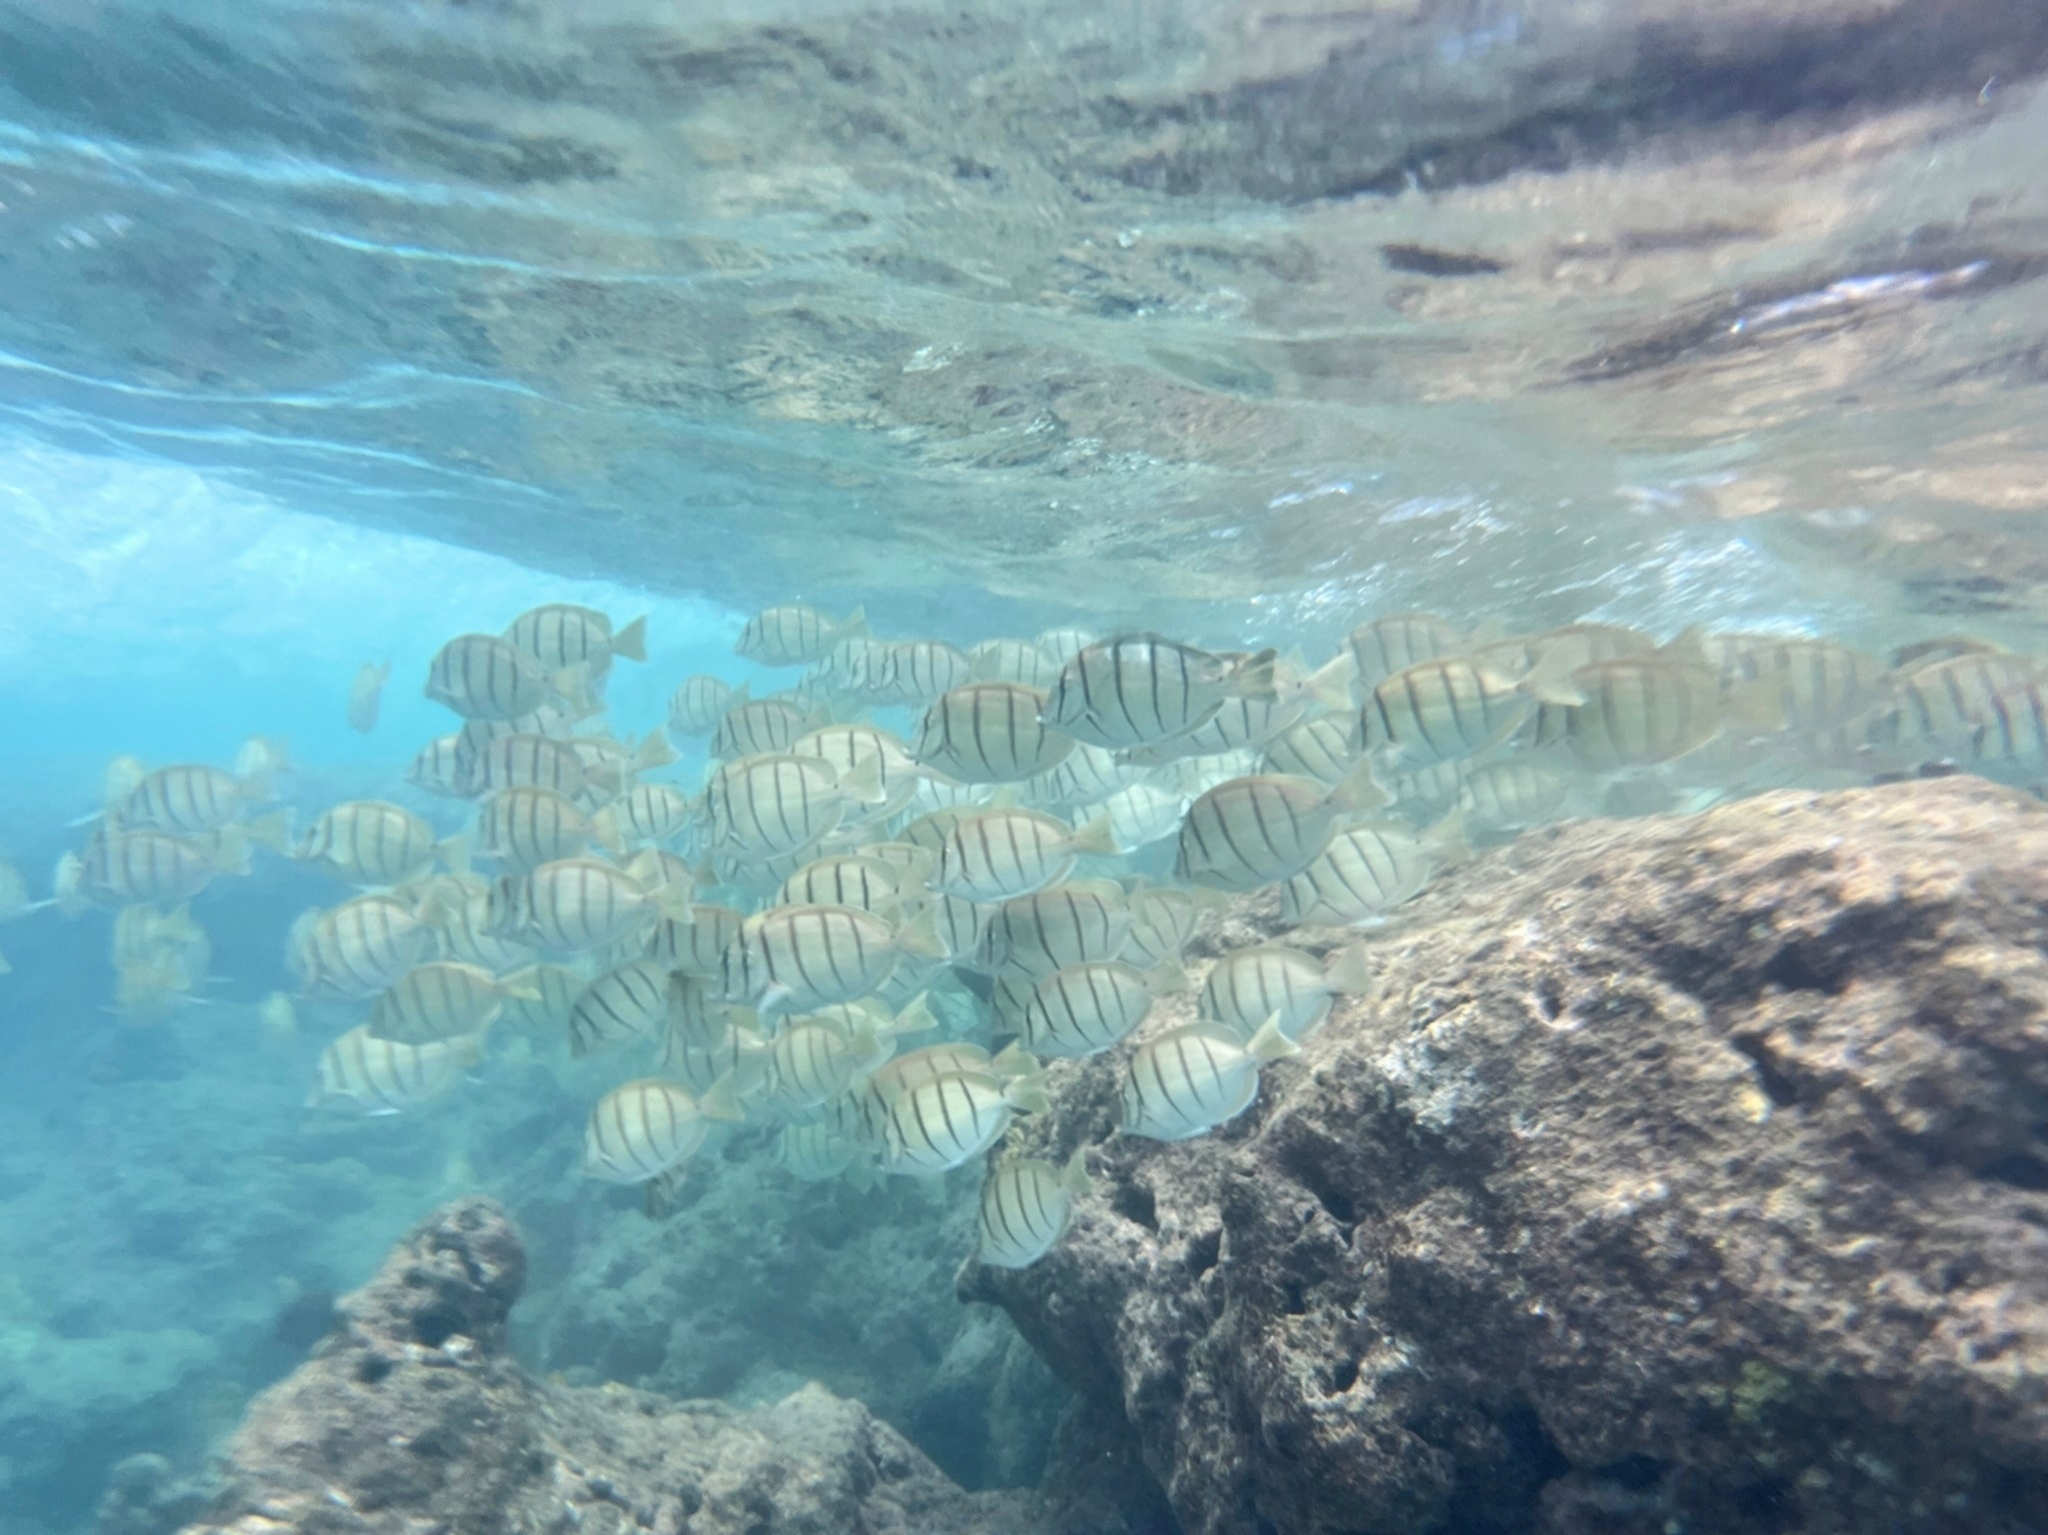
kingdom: Animalia
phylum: Chordata
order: Perciformes
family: Acanthuridae
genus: Acanthurus
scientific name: Acanthurus triostegus
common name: Convict surgeonfish
